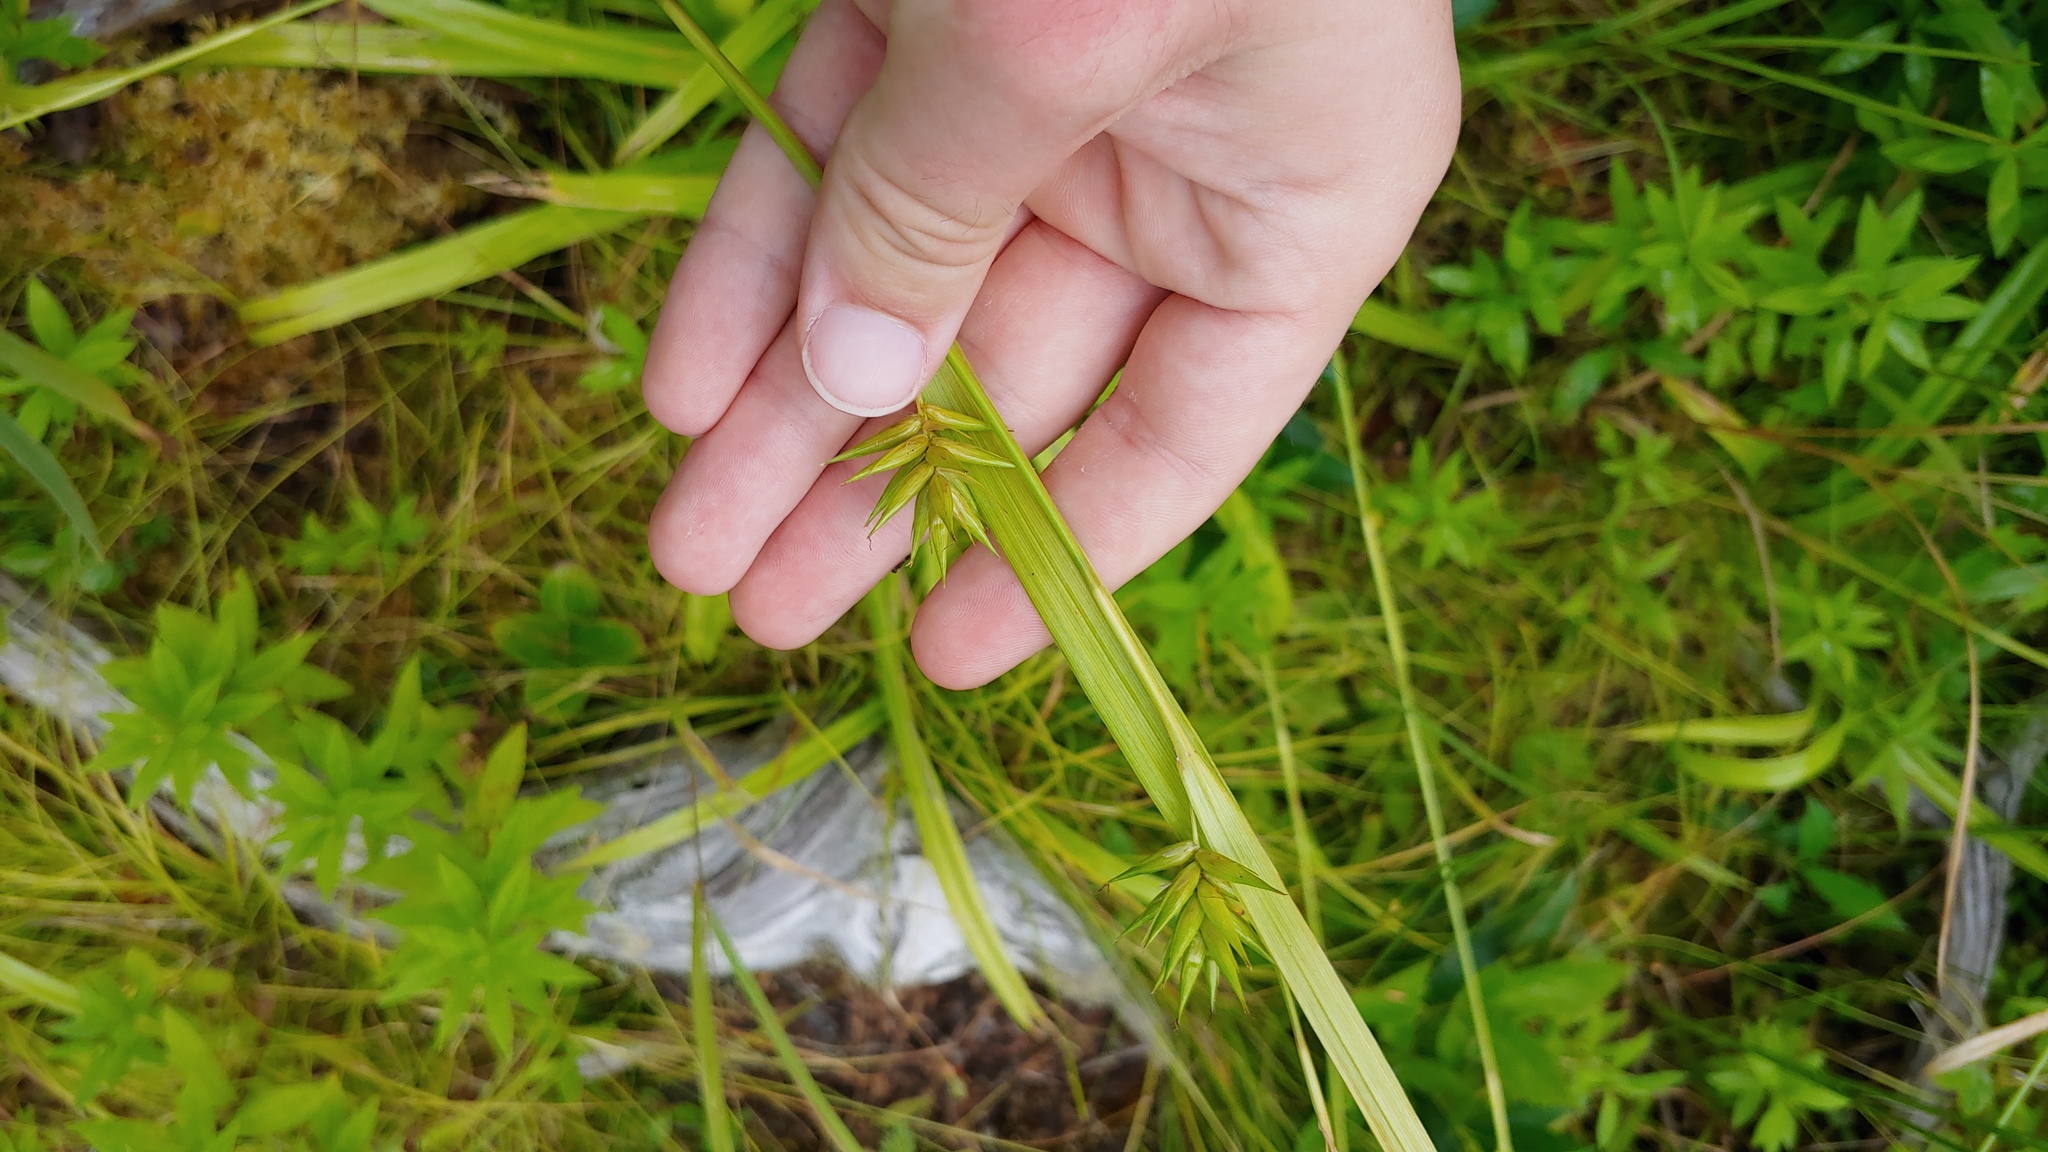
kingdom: Plantae
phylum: Tracheophyta
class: Liliopsida
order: Poales
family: Cyperaceae
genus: Carex
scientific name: Carex folliculata
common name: Northern long sedge
